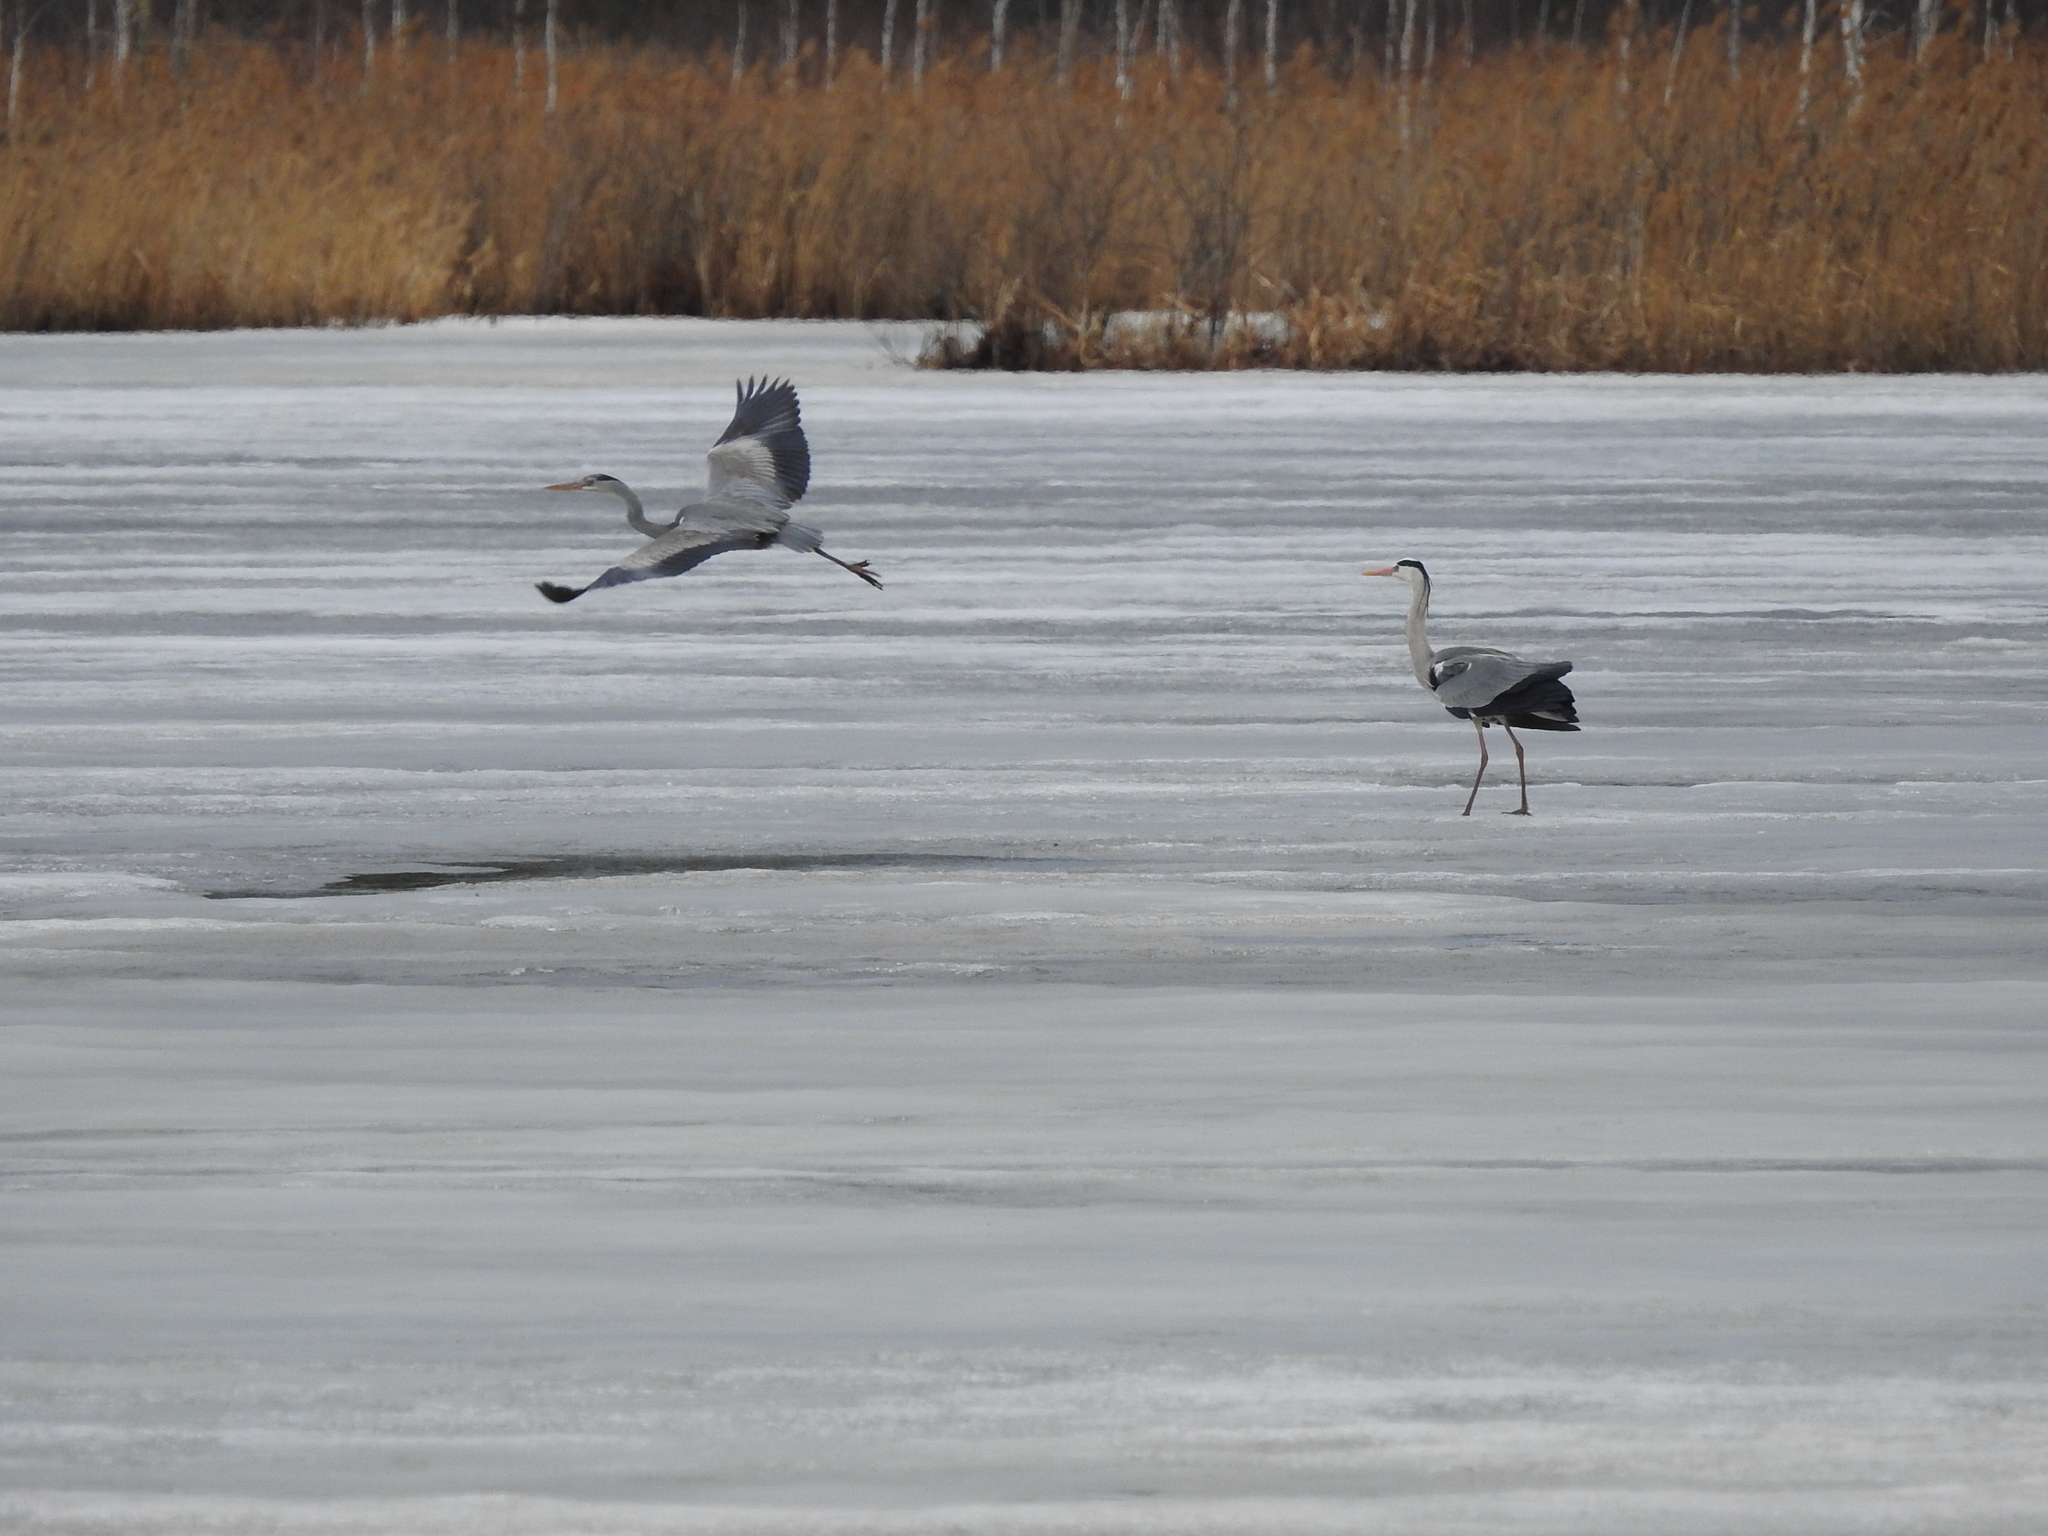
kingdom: Animalia
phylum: Chordata
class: Aves
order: Pelecaniformes
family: Ardeidae
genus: Ardea
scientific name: Ardea cinerea
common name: Grey heron
